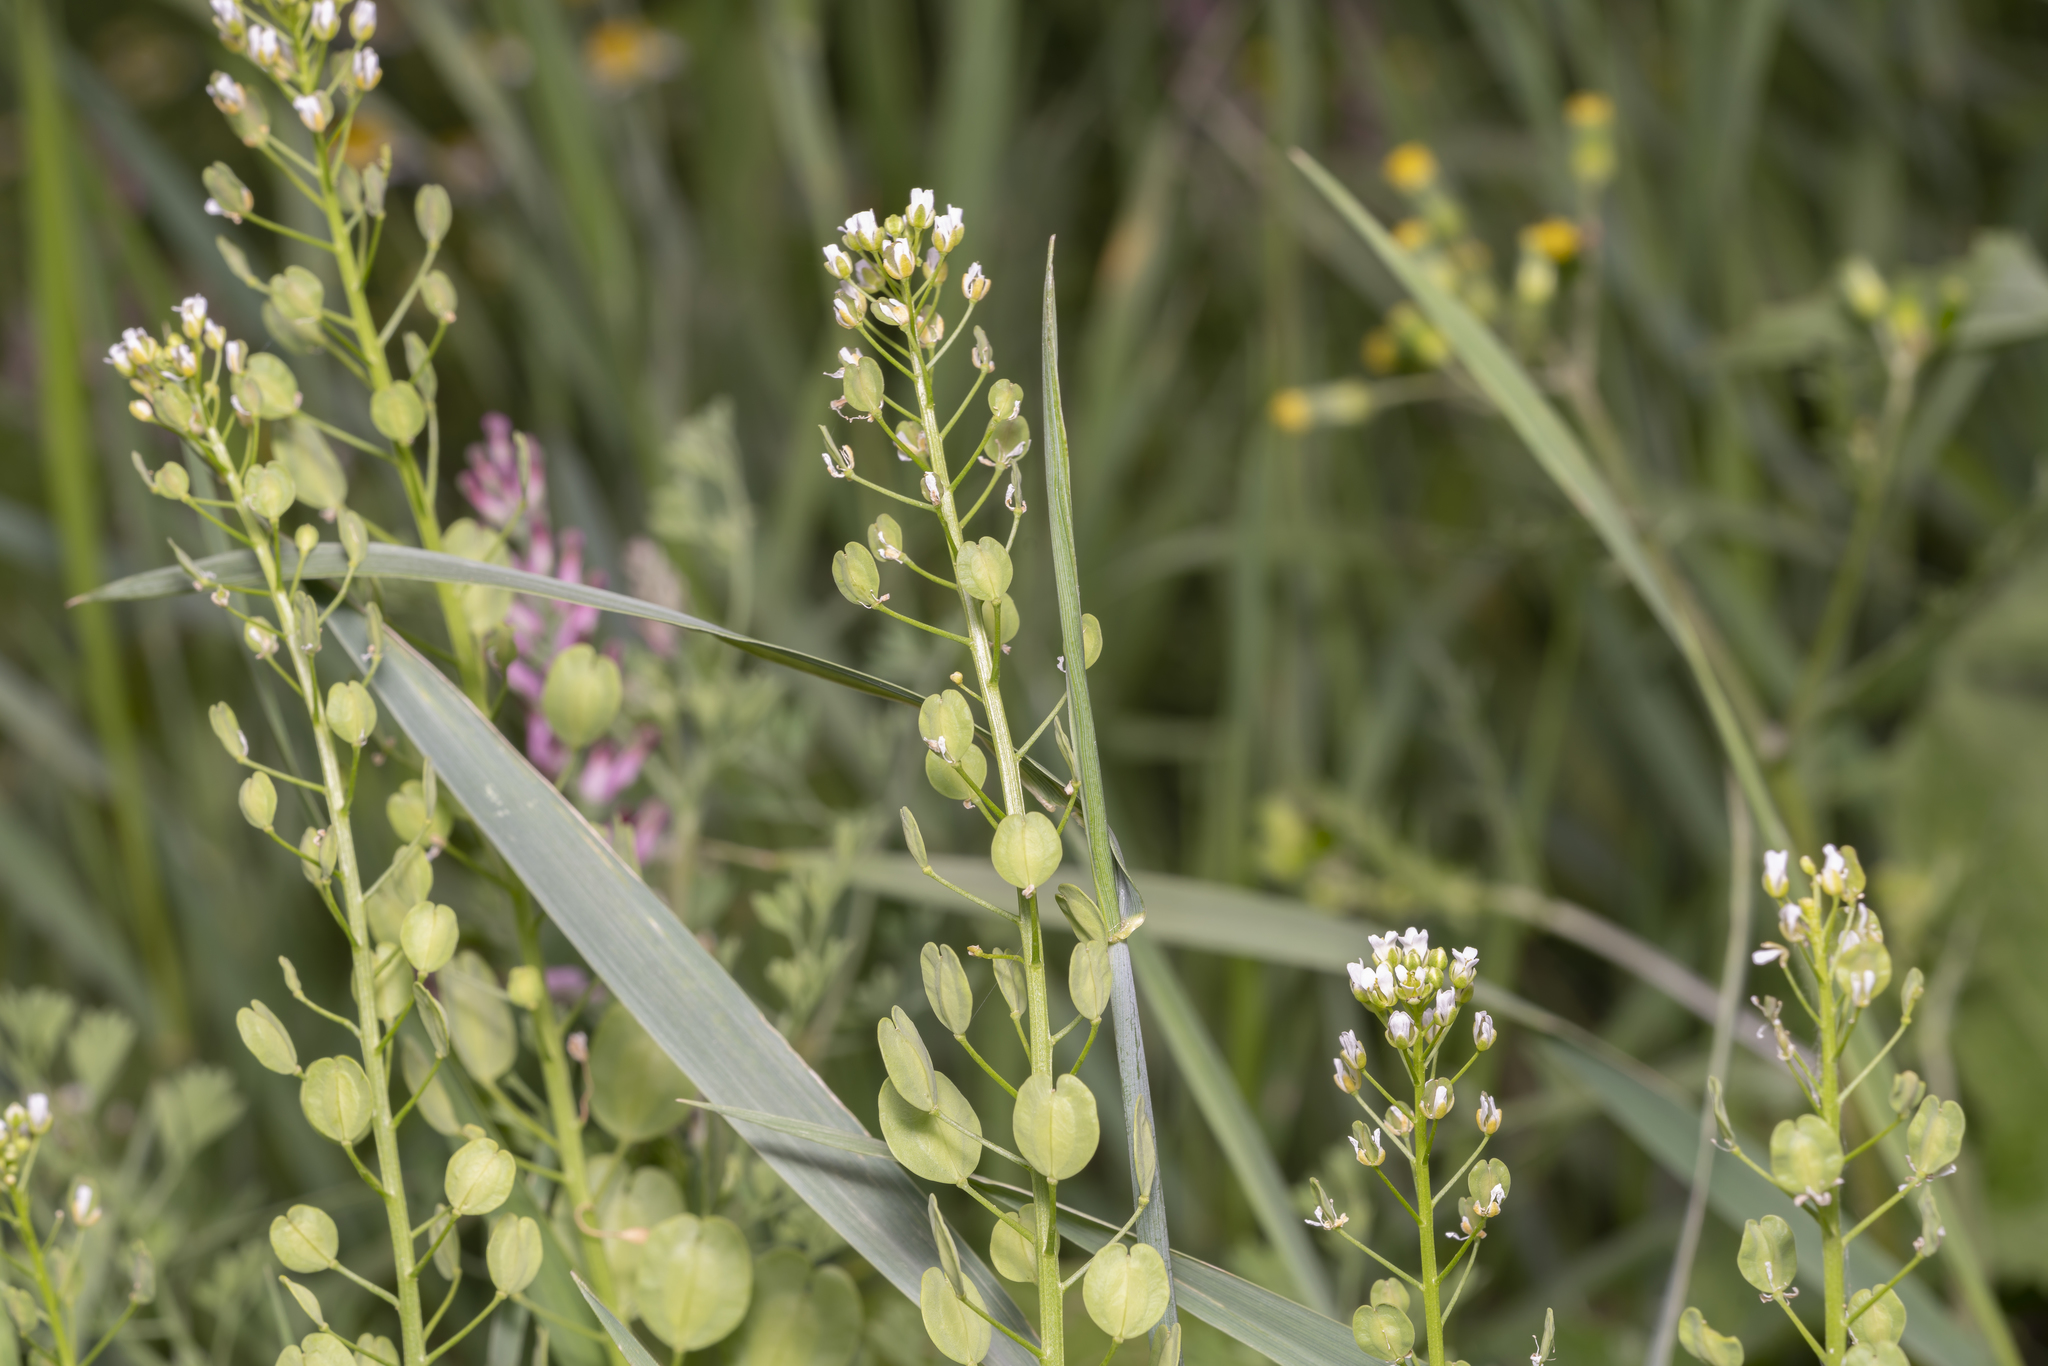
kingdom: Plantae
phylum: Tracheophyta
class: Magnoliopsida
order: Brassicales
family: Brassicaceae
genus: Thlaspi
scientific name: Thlaspi arvense
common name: Field pennycress
